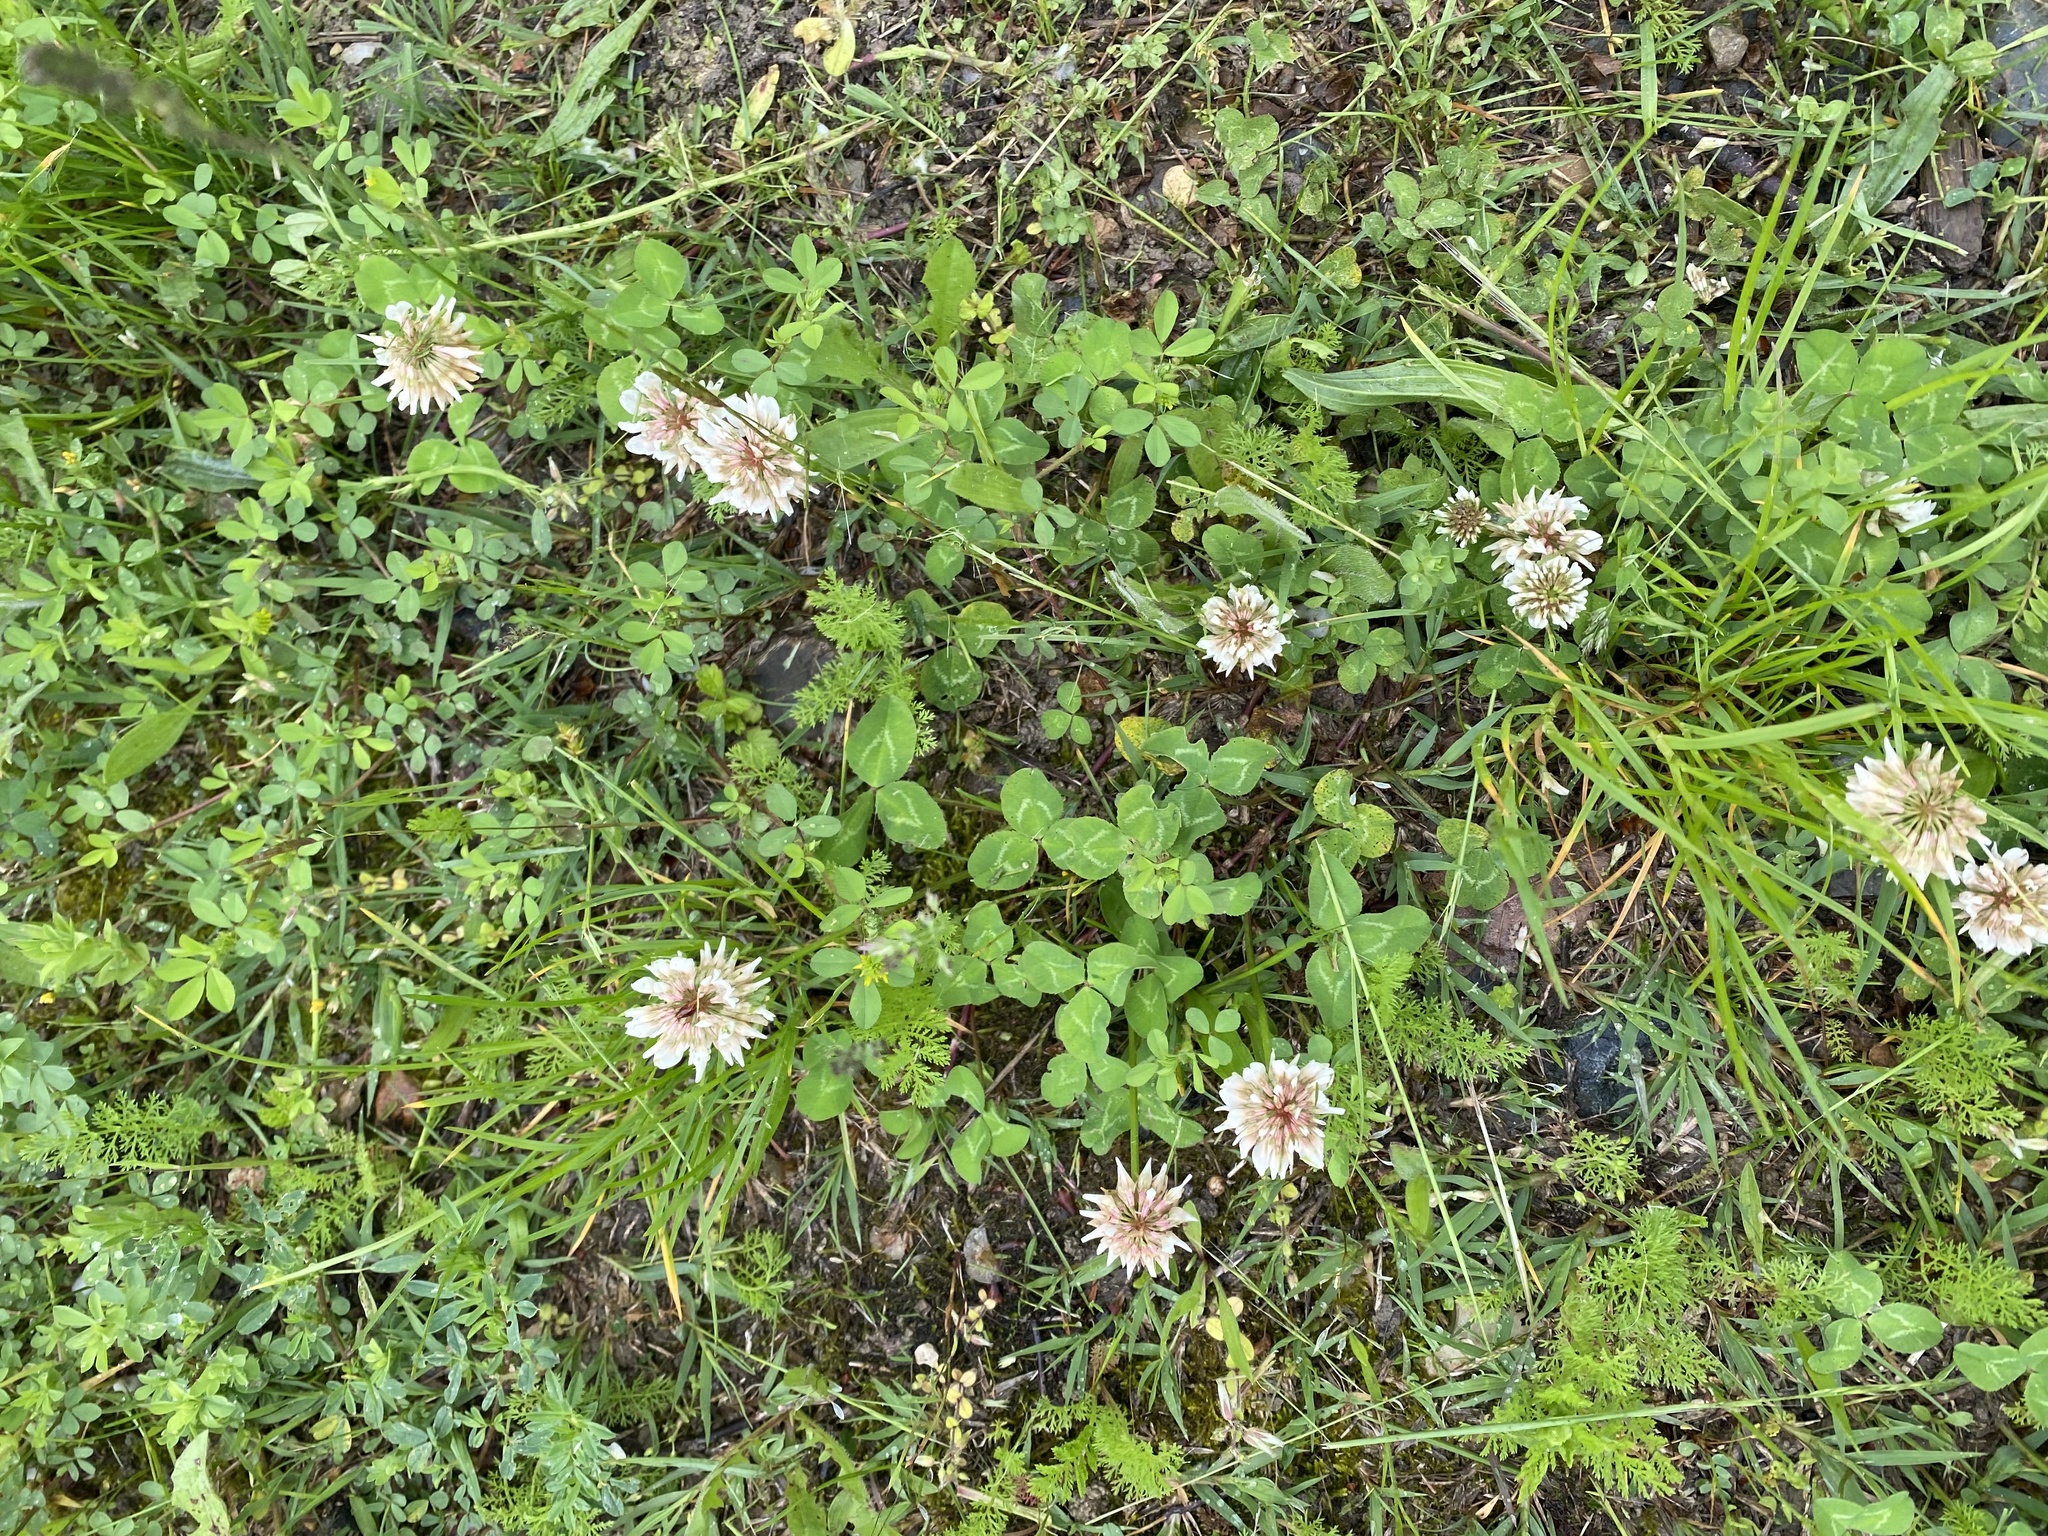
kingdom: Plantae
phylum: Tracheophyta
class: Magnoliopsida
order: Fabales
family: Fabaceae
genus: Trifolium
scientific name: Trifolium repens
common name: White clover
